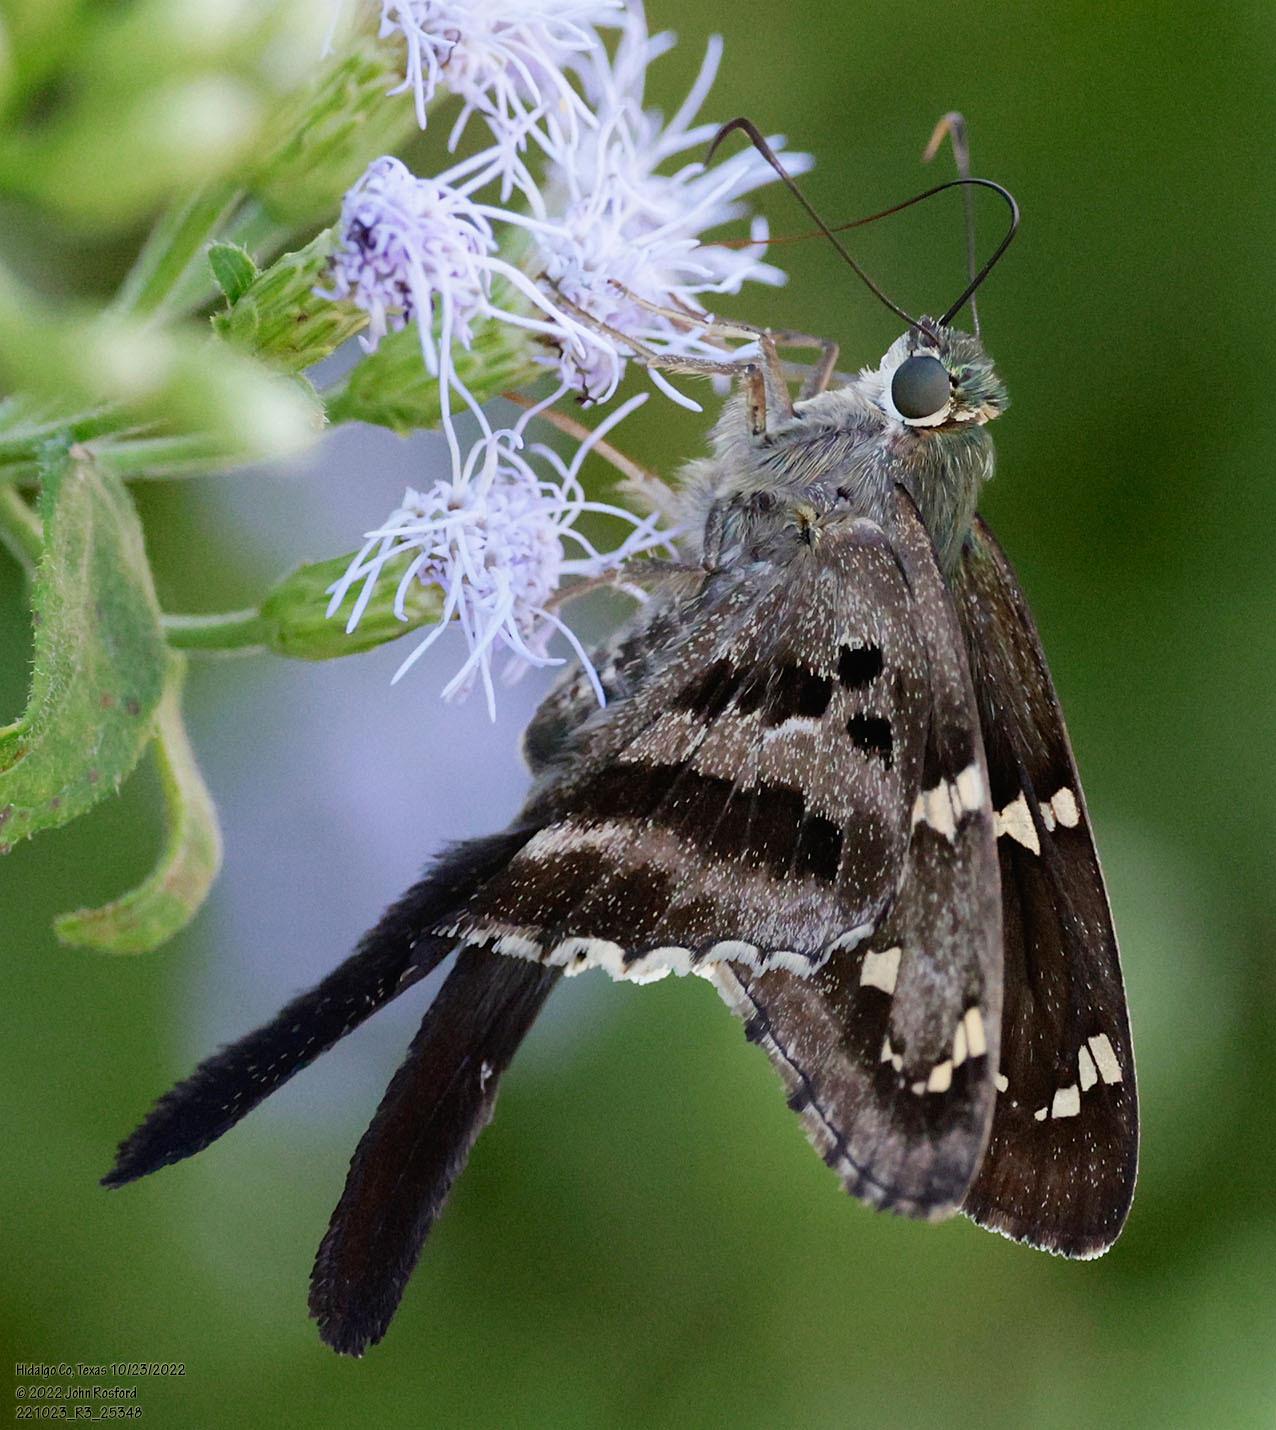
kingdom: Animalia
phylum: Arthropoda
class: Insecta
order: Lepidoptera
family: Hesperiidae
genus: Urbanus
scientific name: Urbanus proteus
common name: Long-tailed skipper
